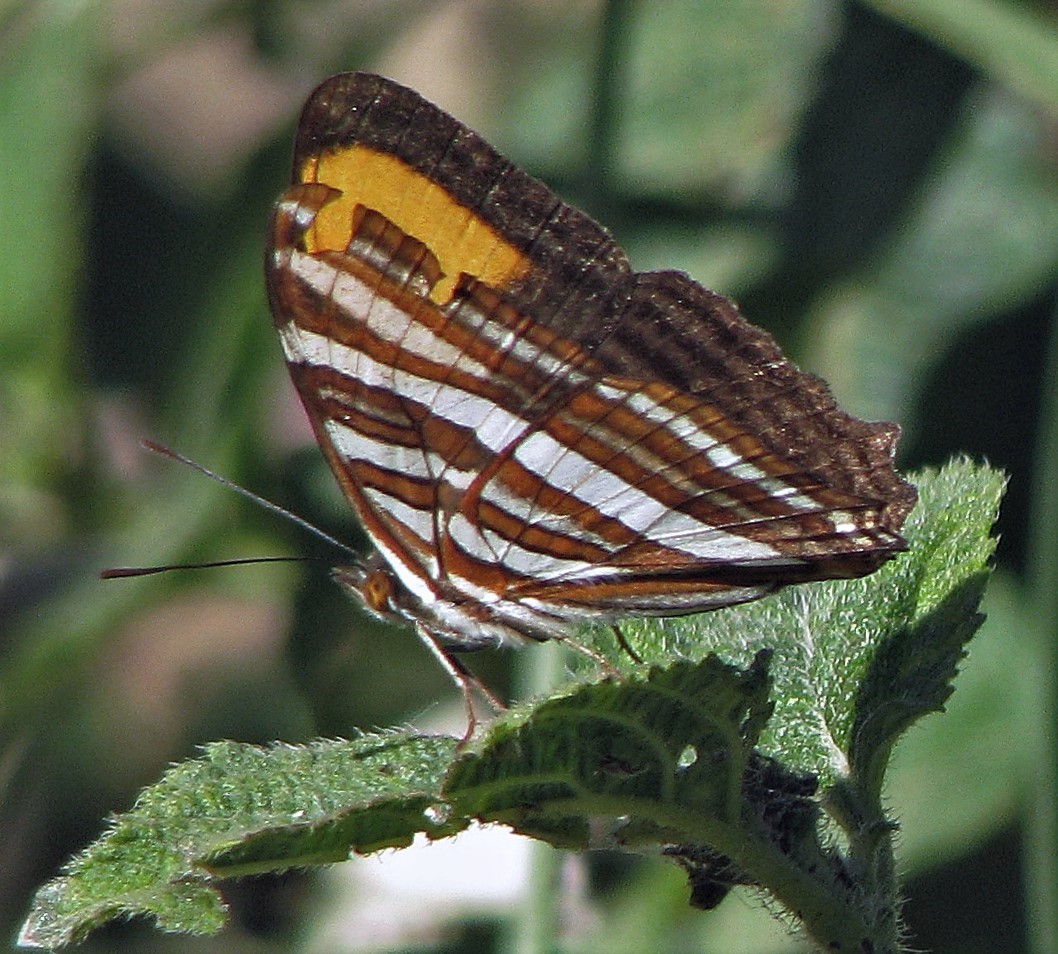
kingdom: Animalia
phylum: Arthropoda
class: Insecta
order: Lepidoptera
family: Nymphalidae
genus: Limenitis
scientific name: Limenitis syma
